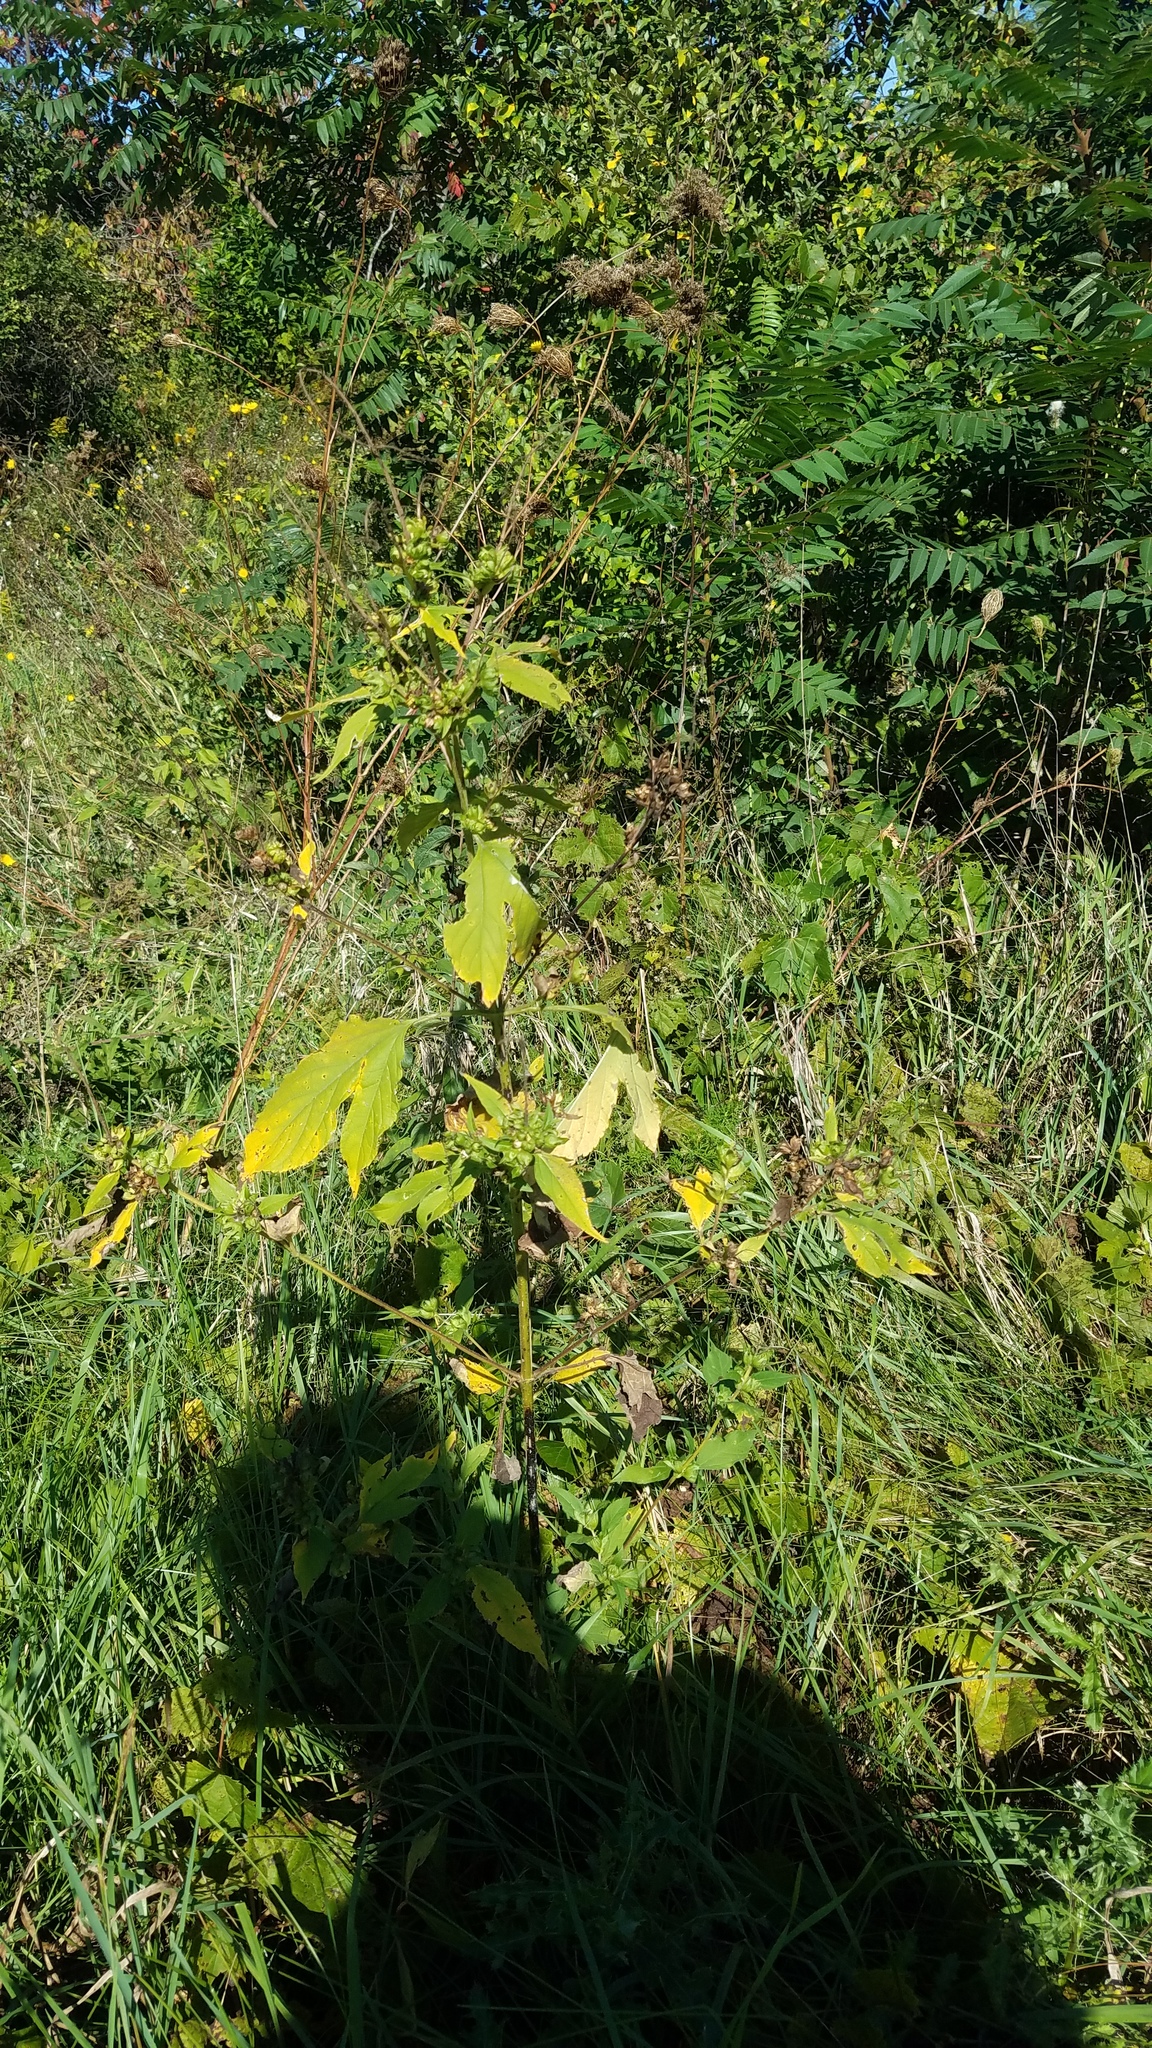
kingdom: Plantae
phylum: Tracheophyta
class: Magnoliopsida
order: Asterales
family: Asteraceae
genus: Ambrosia
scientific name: Ambrosia trifida
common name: Giant ragweed
